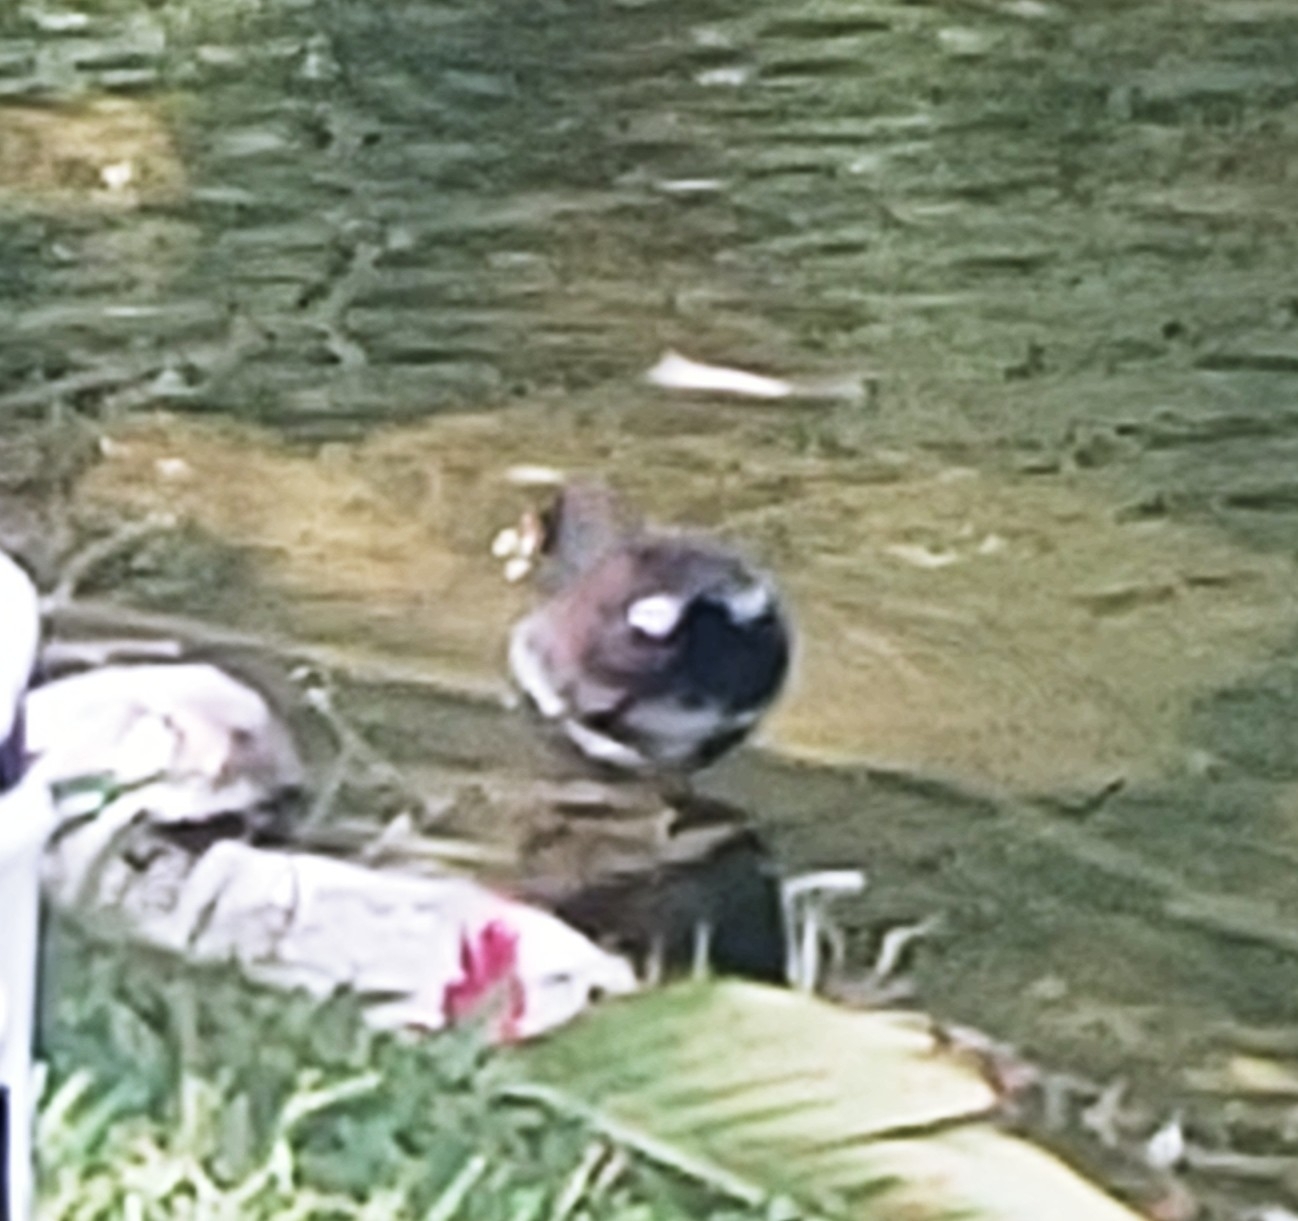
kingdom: Animalia
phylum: Chordata
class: Aves
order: Gruiformes
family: Rallidae
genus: Gallinula
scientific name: Gallinula chloropus
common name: Common moorhen
